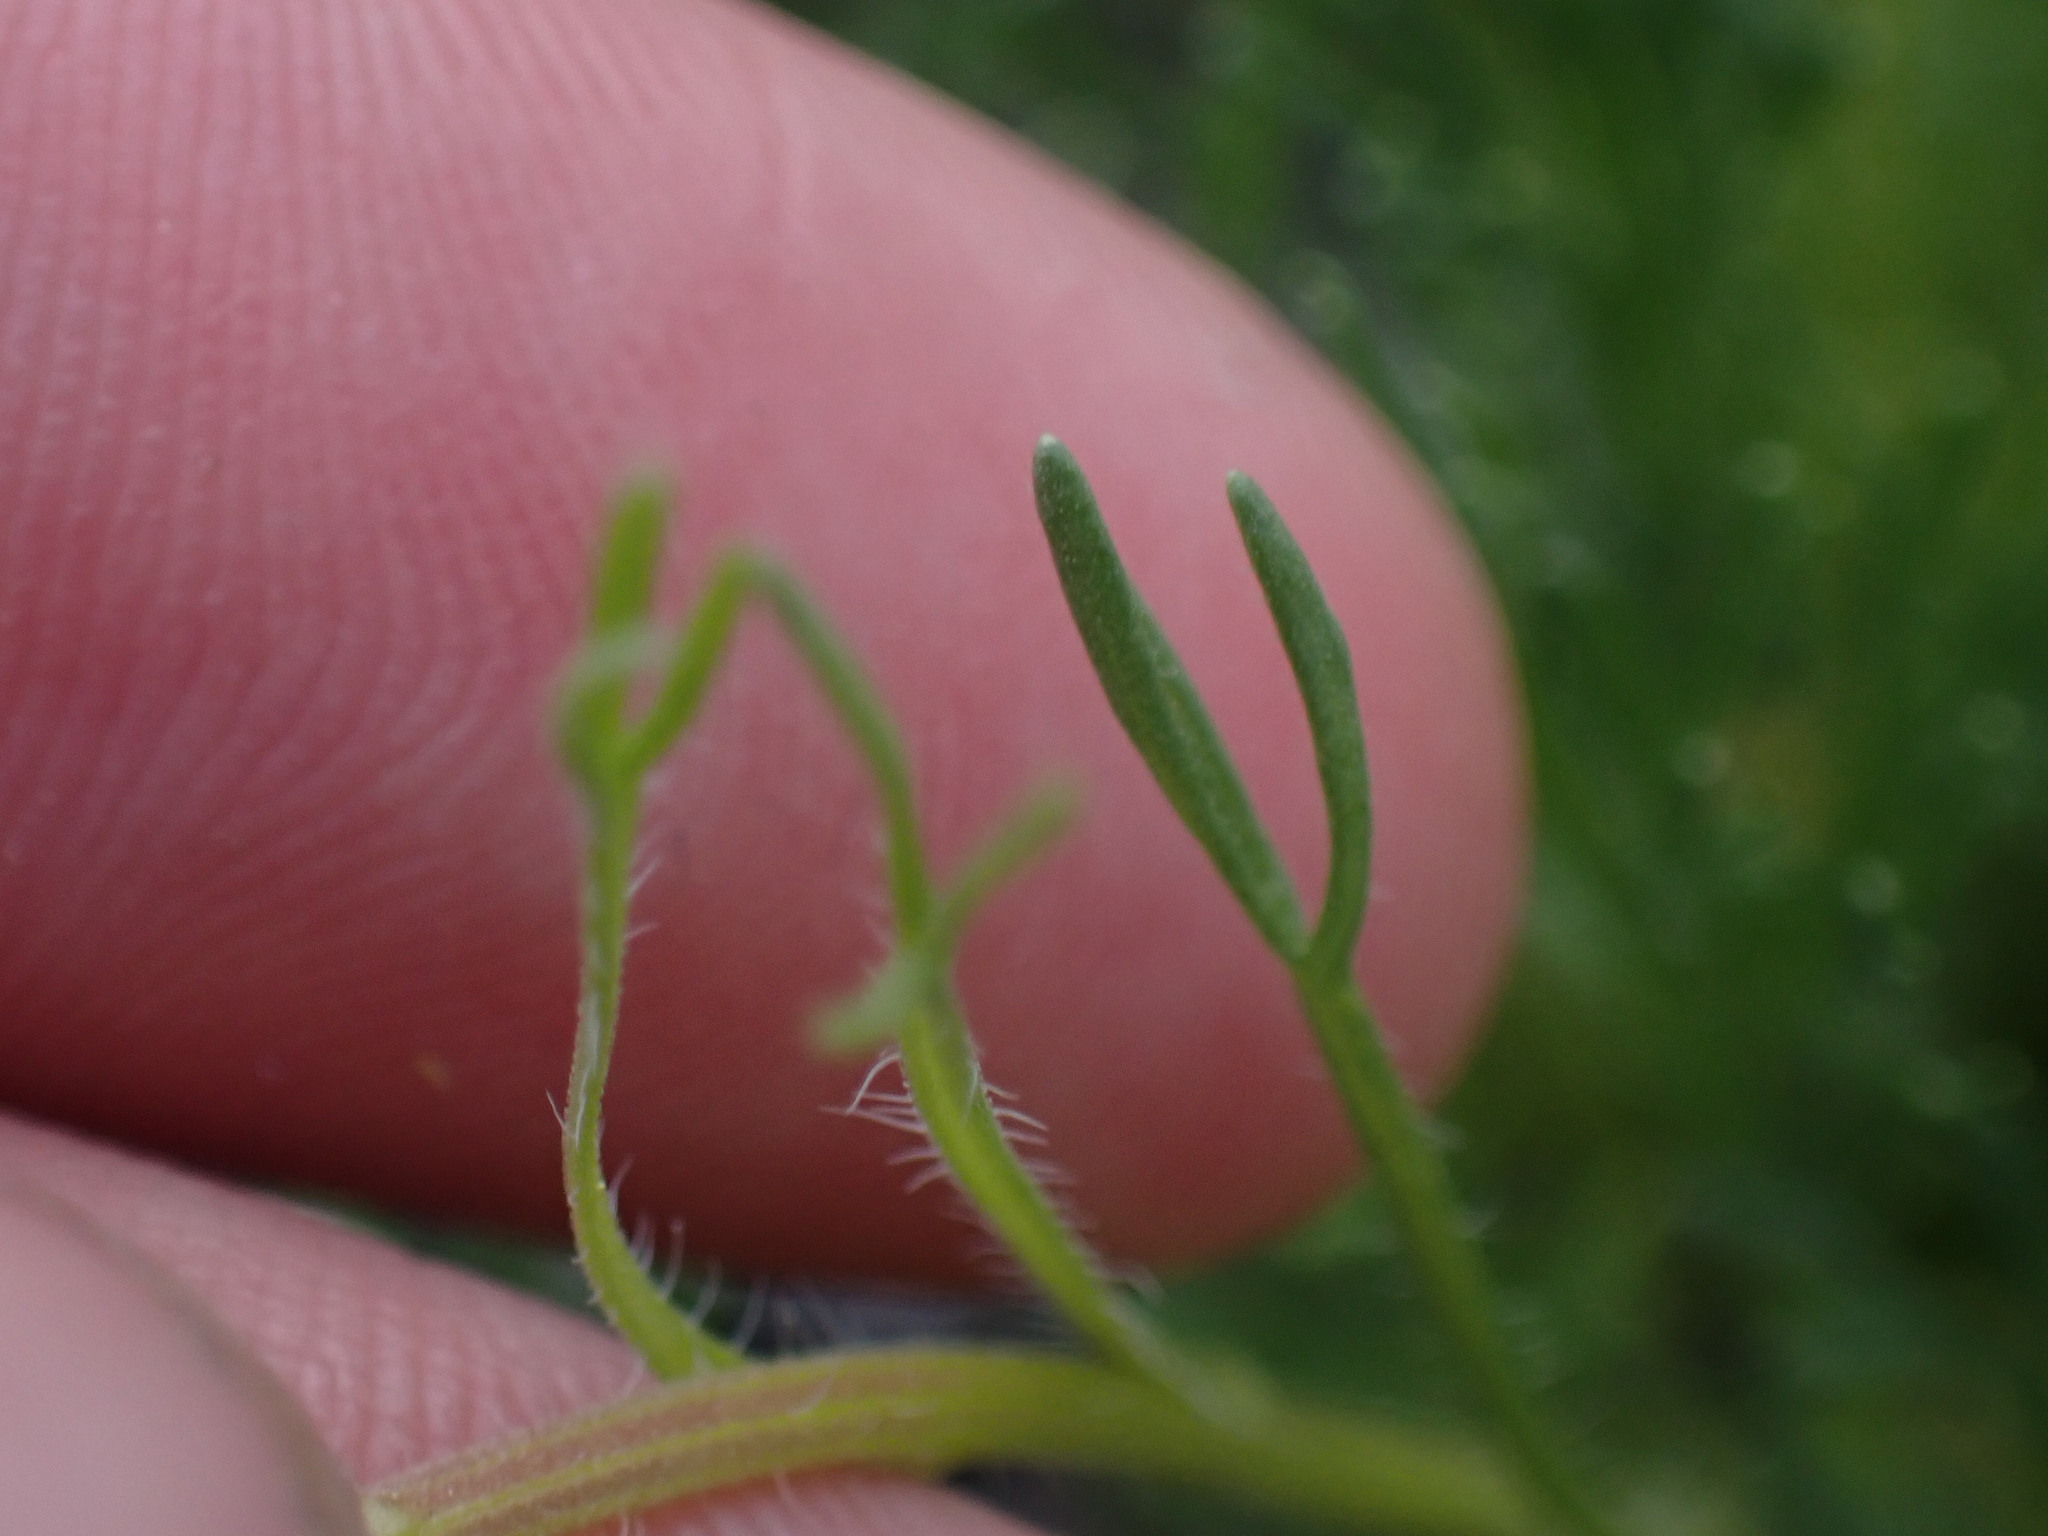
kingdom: Plantae
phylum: Tracheophyta
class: Magnoliopsida
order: Asterales
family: Asteraceae
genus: Erigeron
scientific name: Erigeron compositus
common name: Dwarf mountain fleabane
